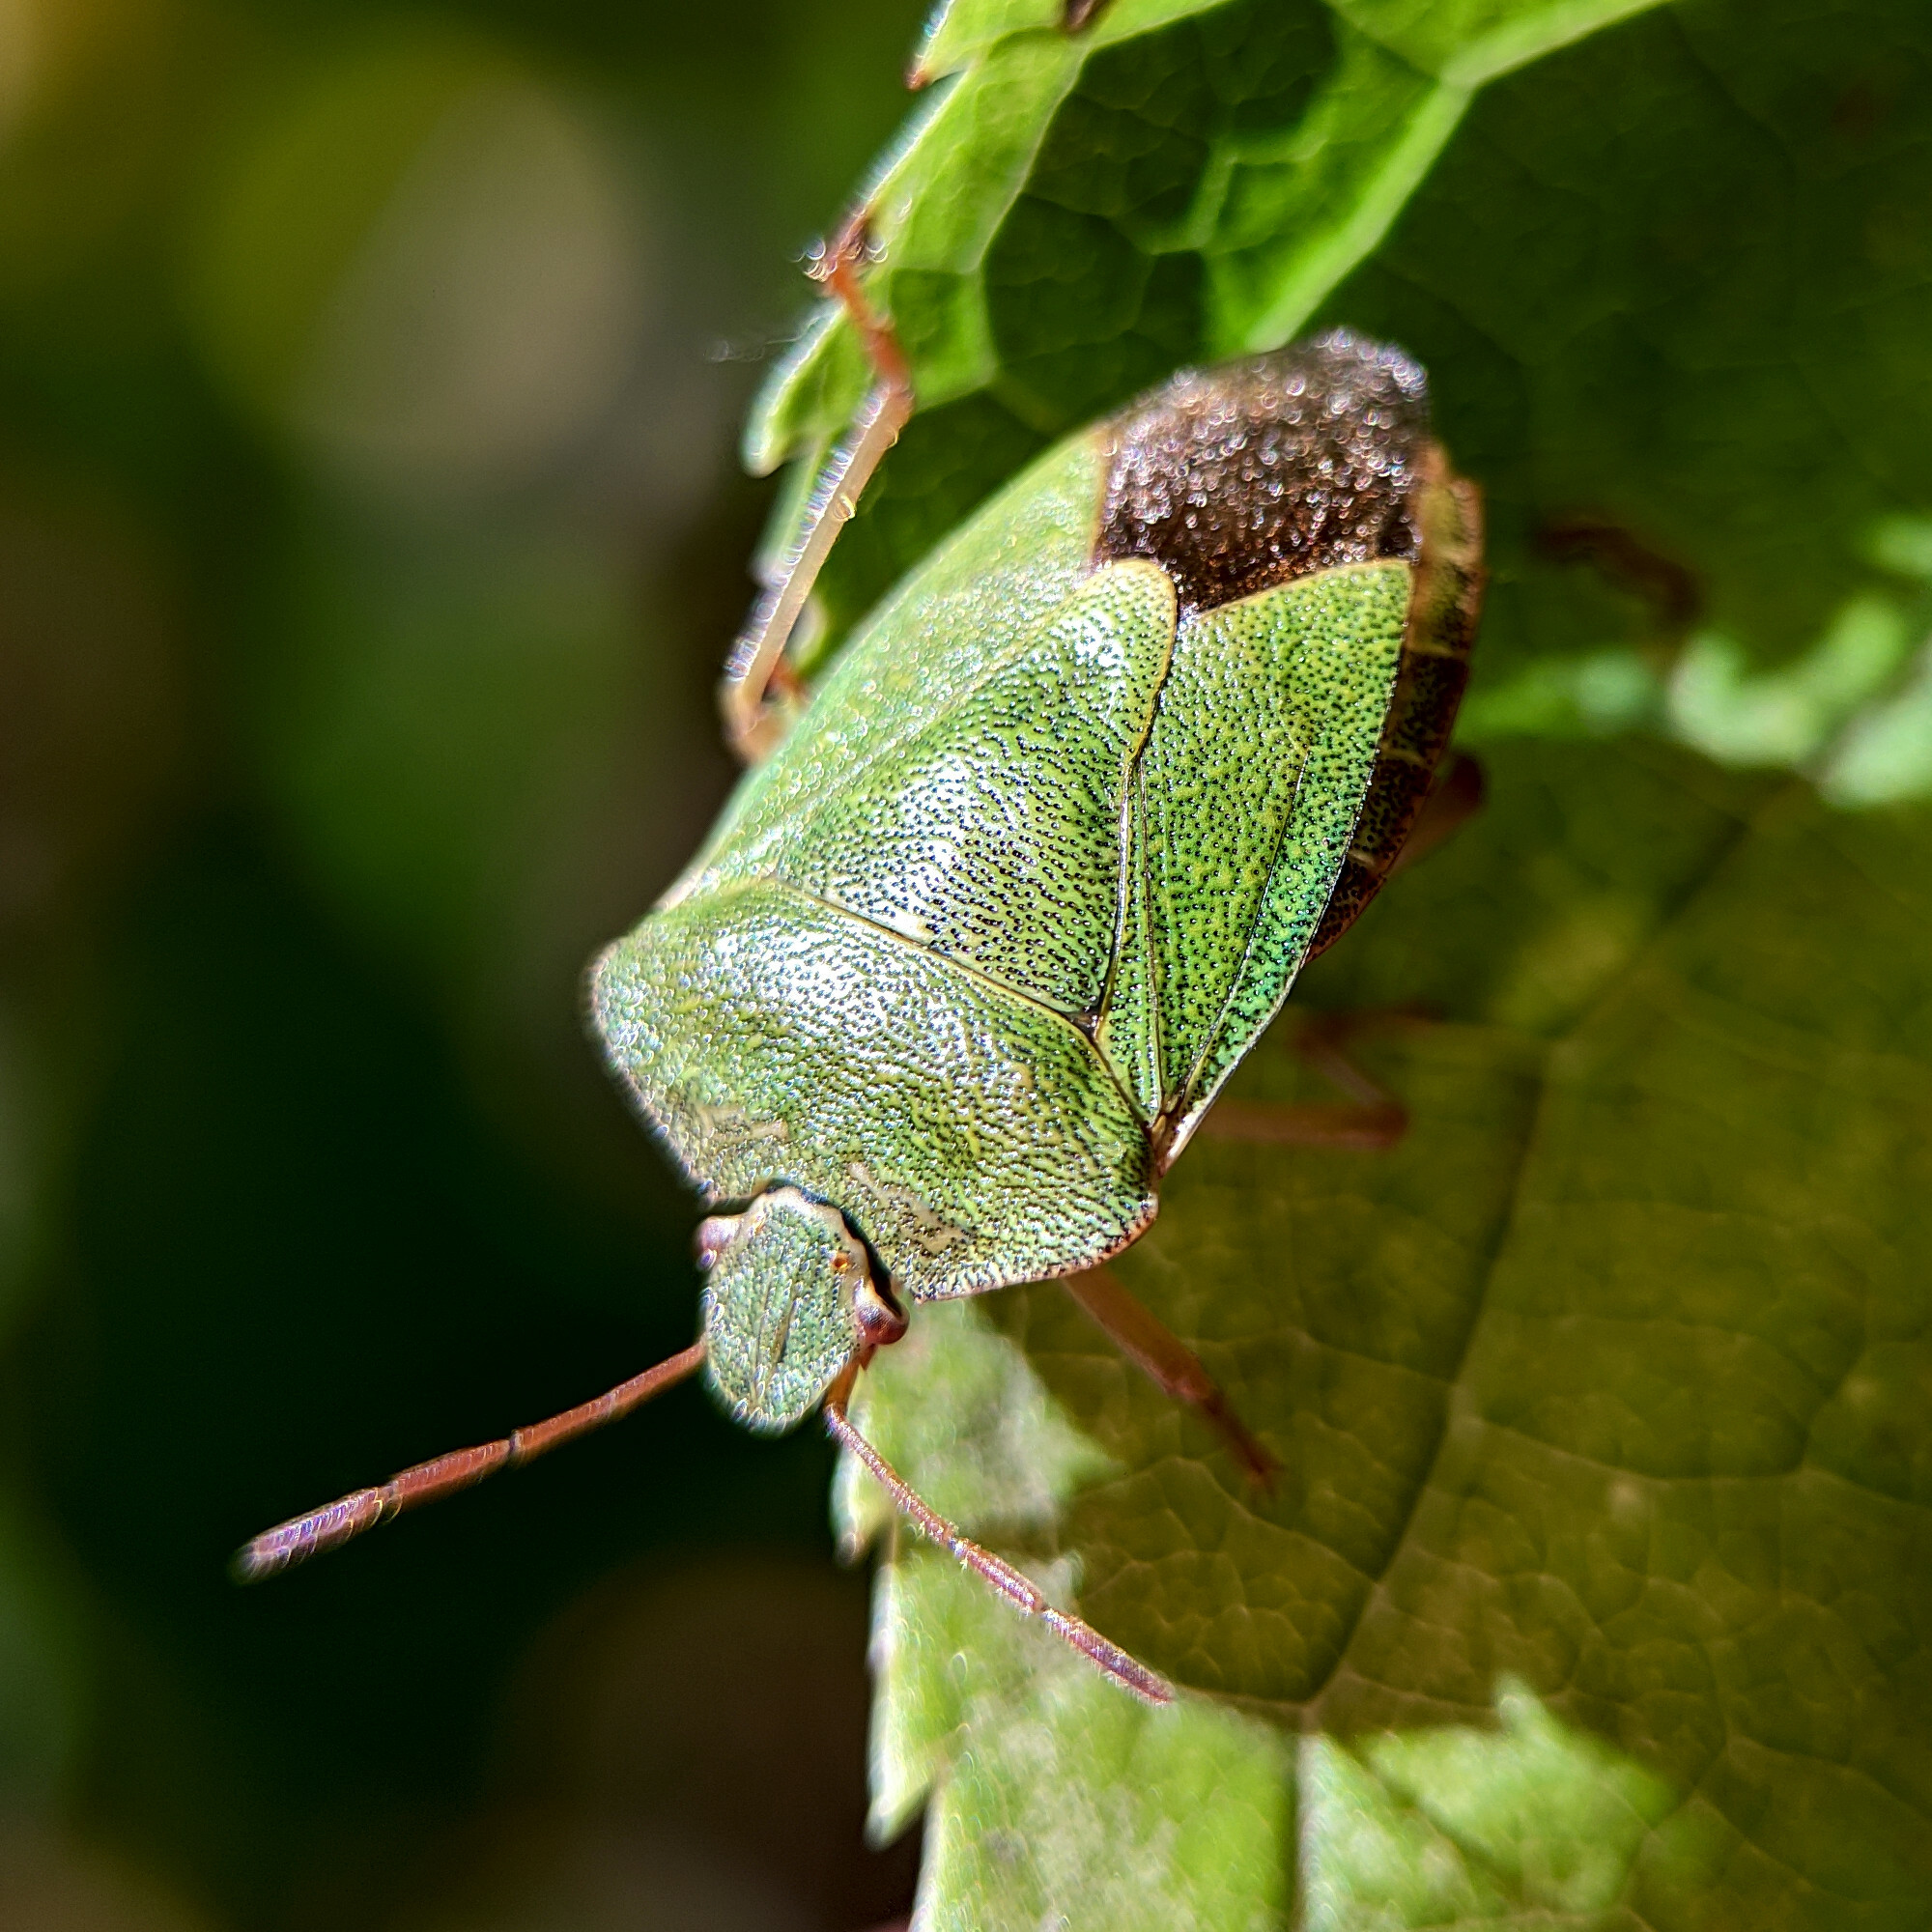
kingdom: Animalia
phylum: Arthropoda
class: Insecta
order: Hemiptera
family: Pentatomidae
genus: Palomena
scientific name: Palomena prasina
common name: Green shieldbug
